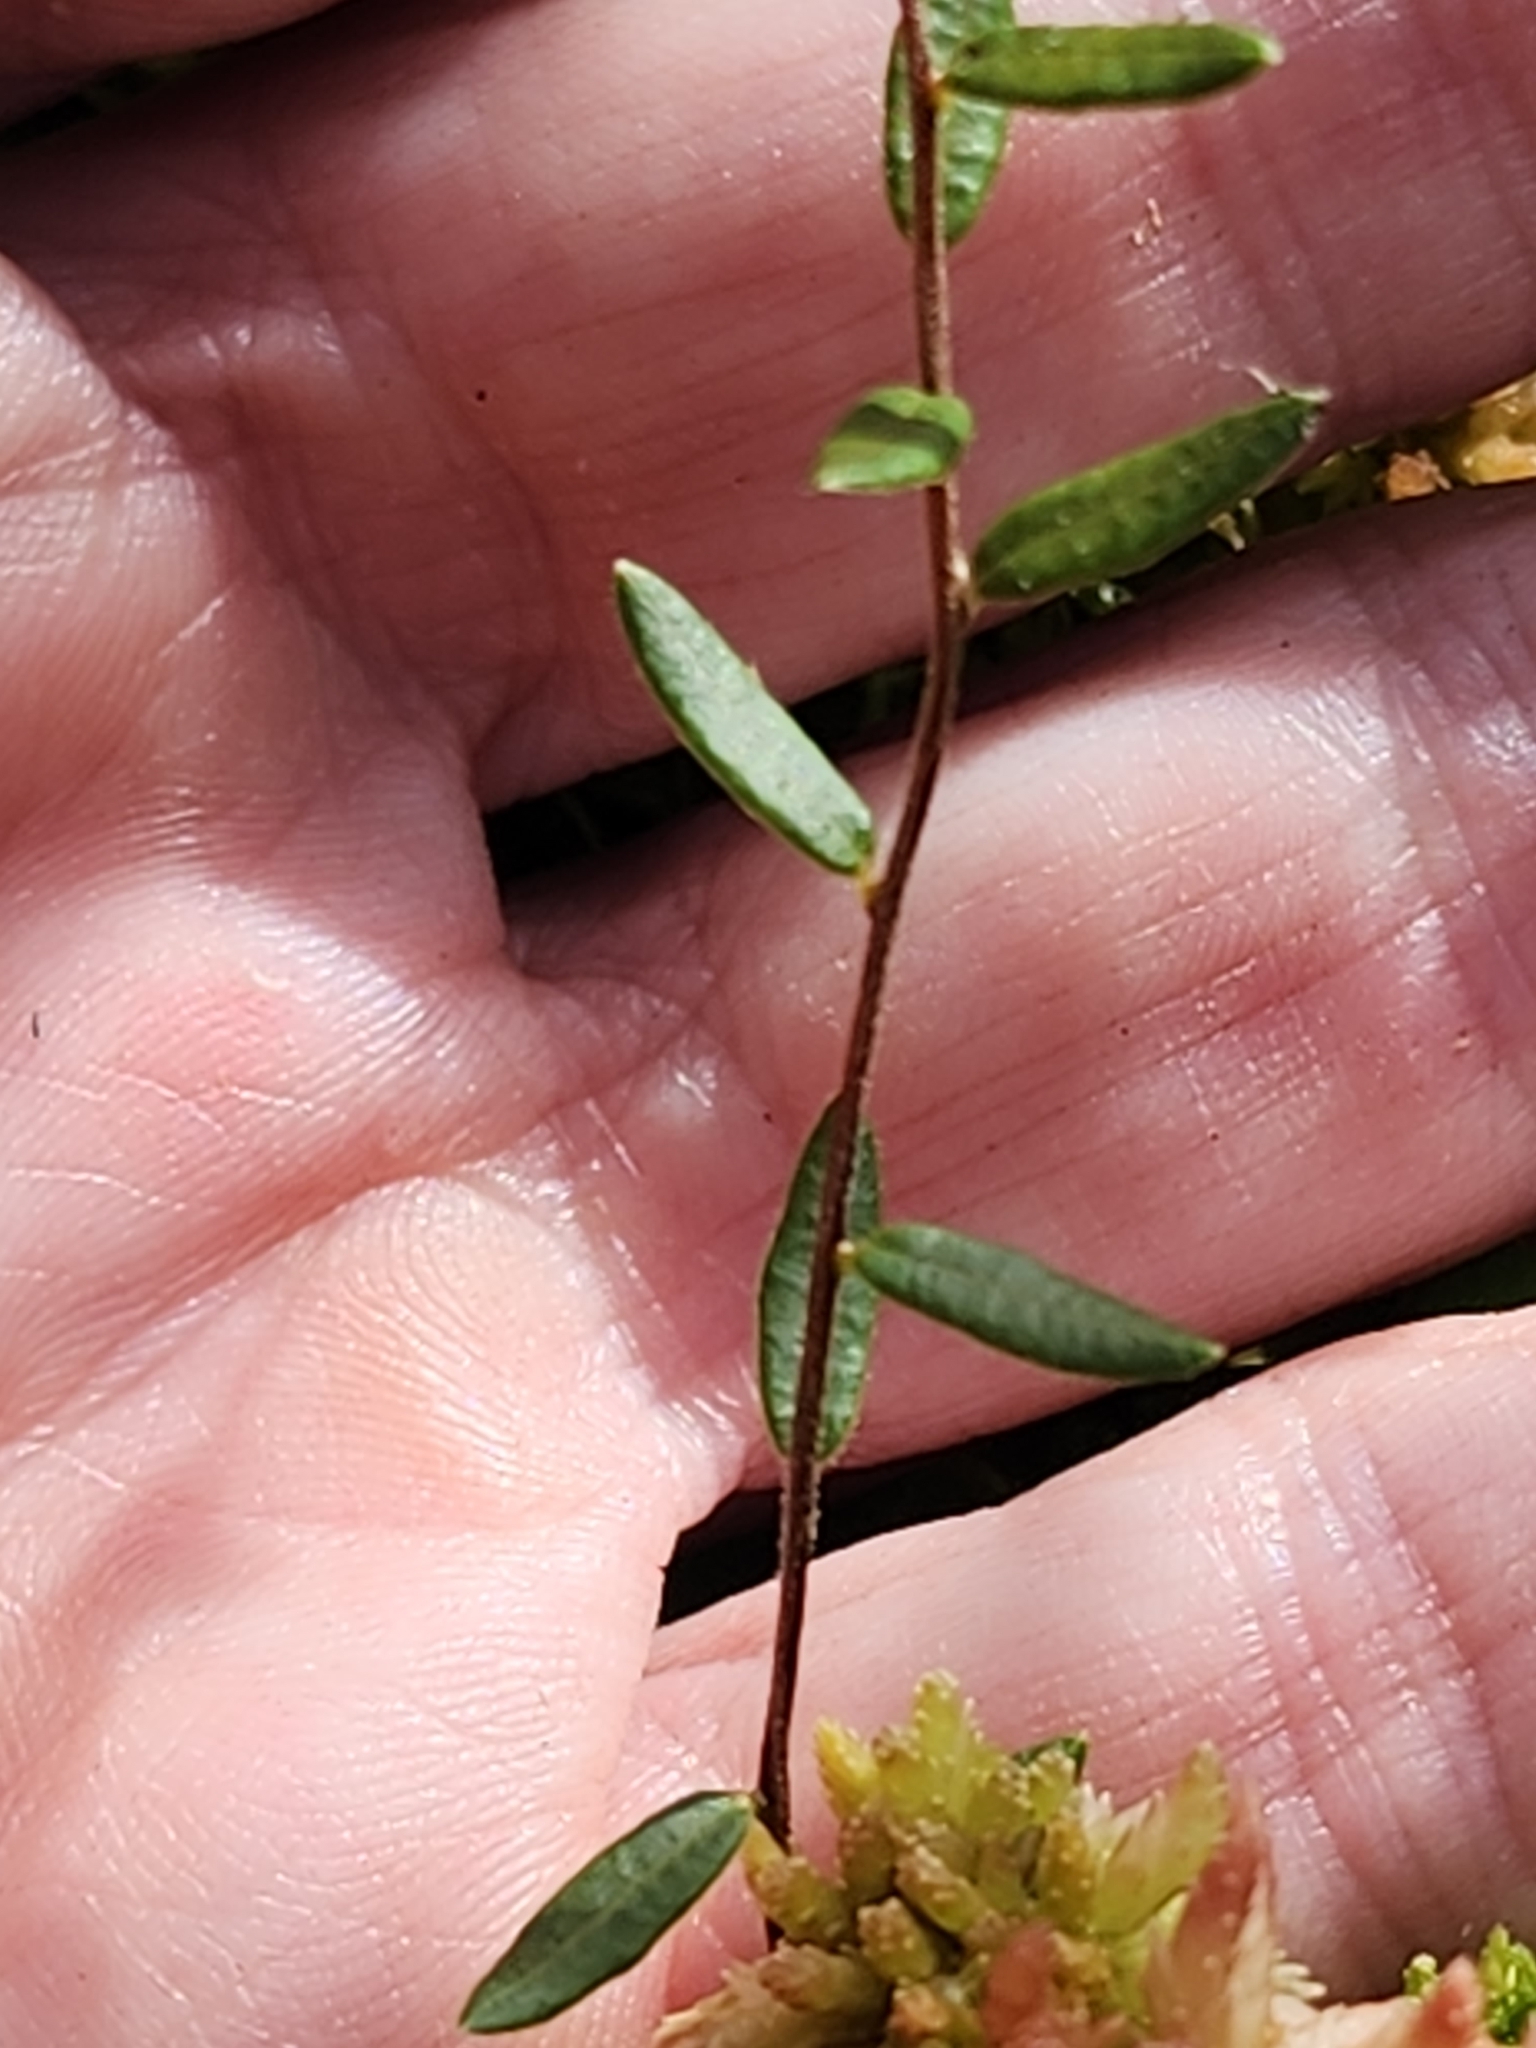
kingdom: Plantae
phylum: Tracheophyta
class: Magnoliopsida
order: Ericales
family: Ericaceae
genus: Vaccinium
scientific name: Vaccinium oxycoccos
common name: Cranberry
